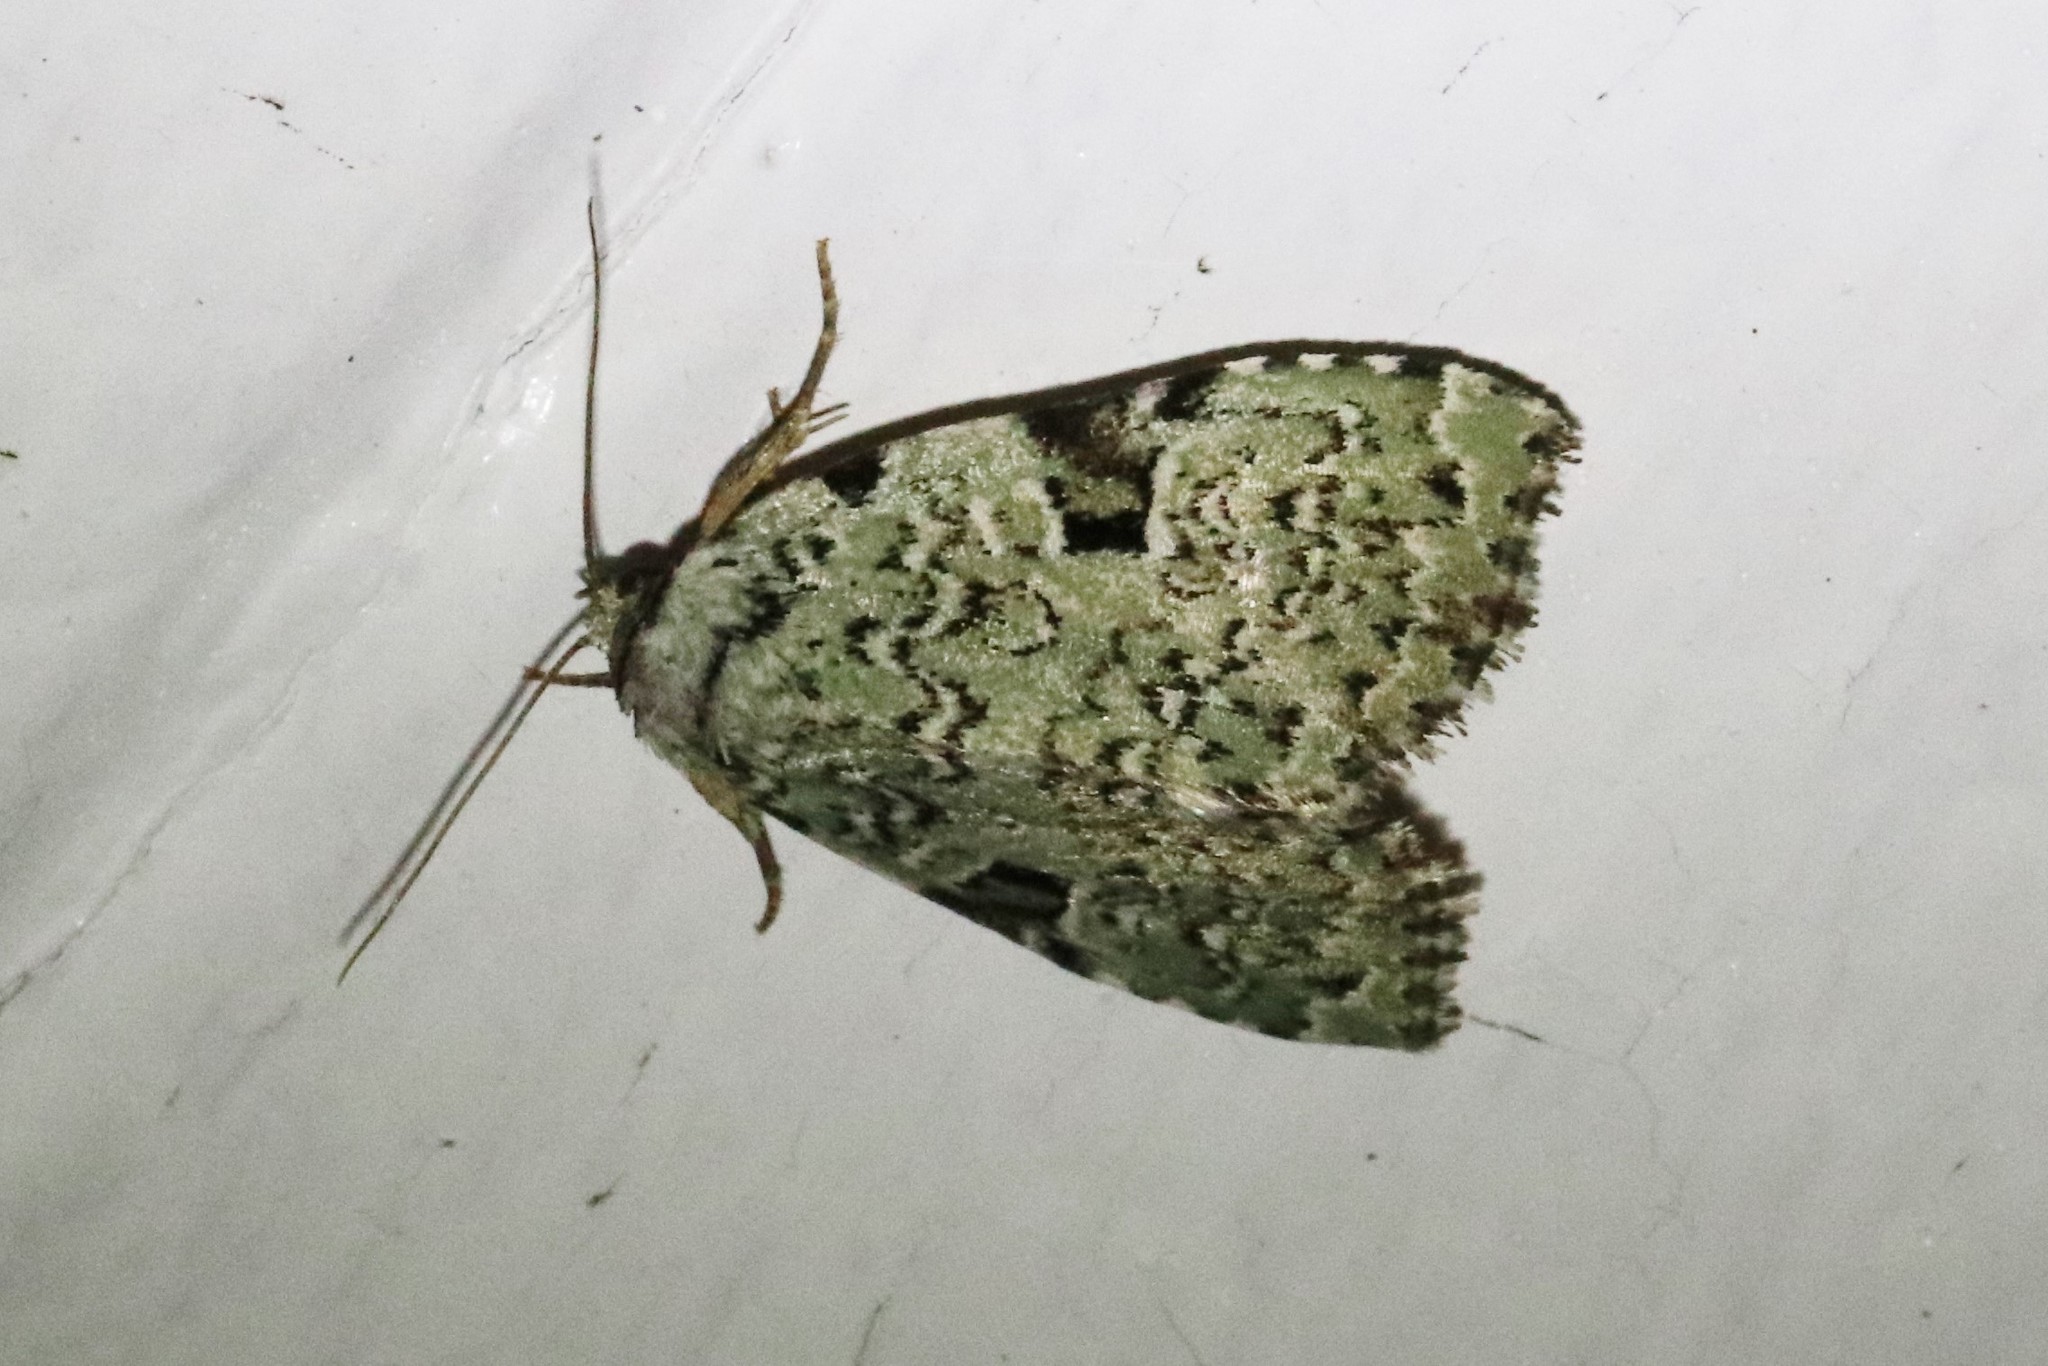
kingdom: Animalia
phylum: Arthropoda
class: Insecta
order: Lepidoptera
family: Noctuidae
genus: Leuconycta
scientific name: Leuconycta diphteroides
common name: Green leuconycta moth
